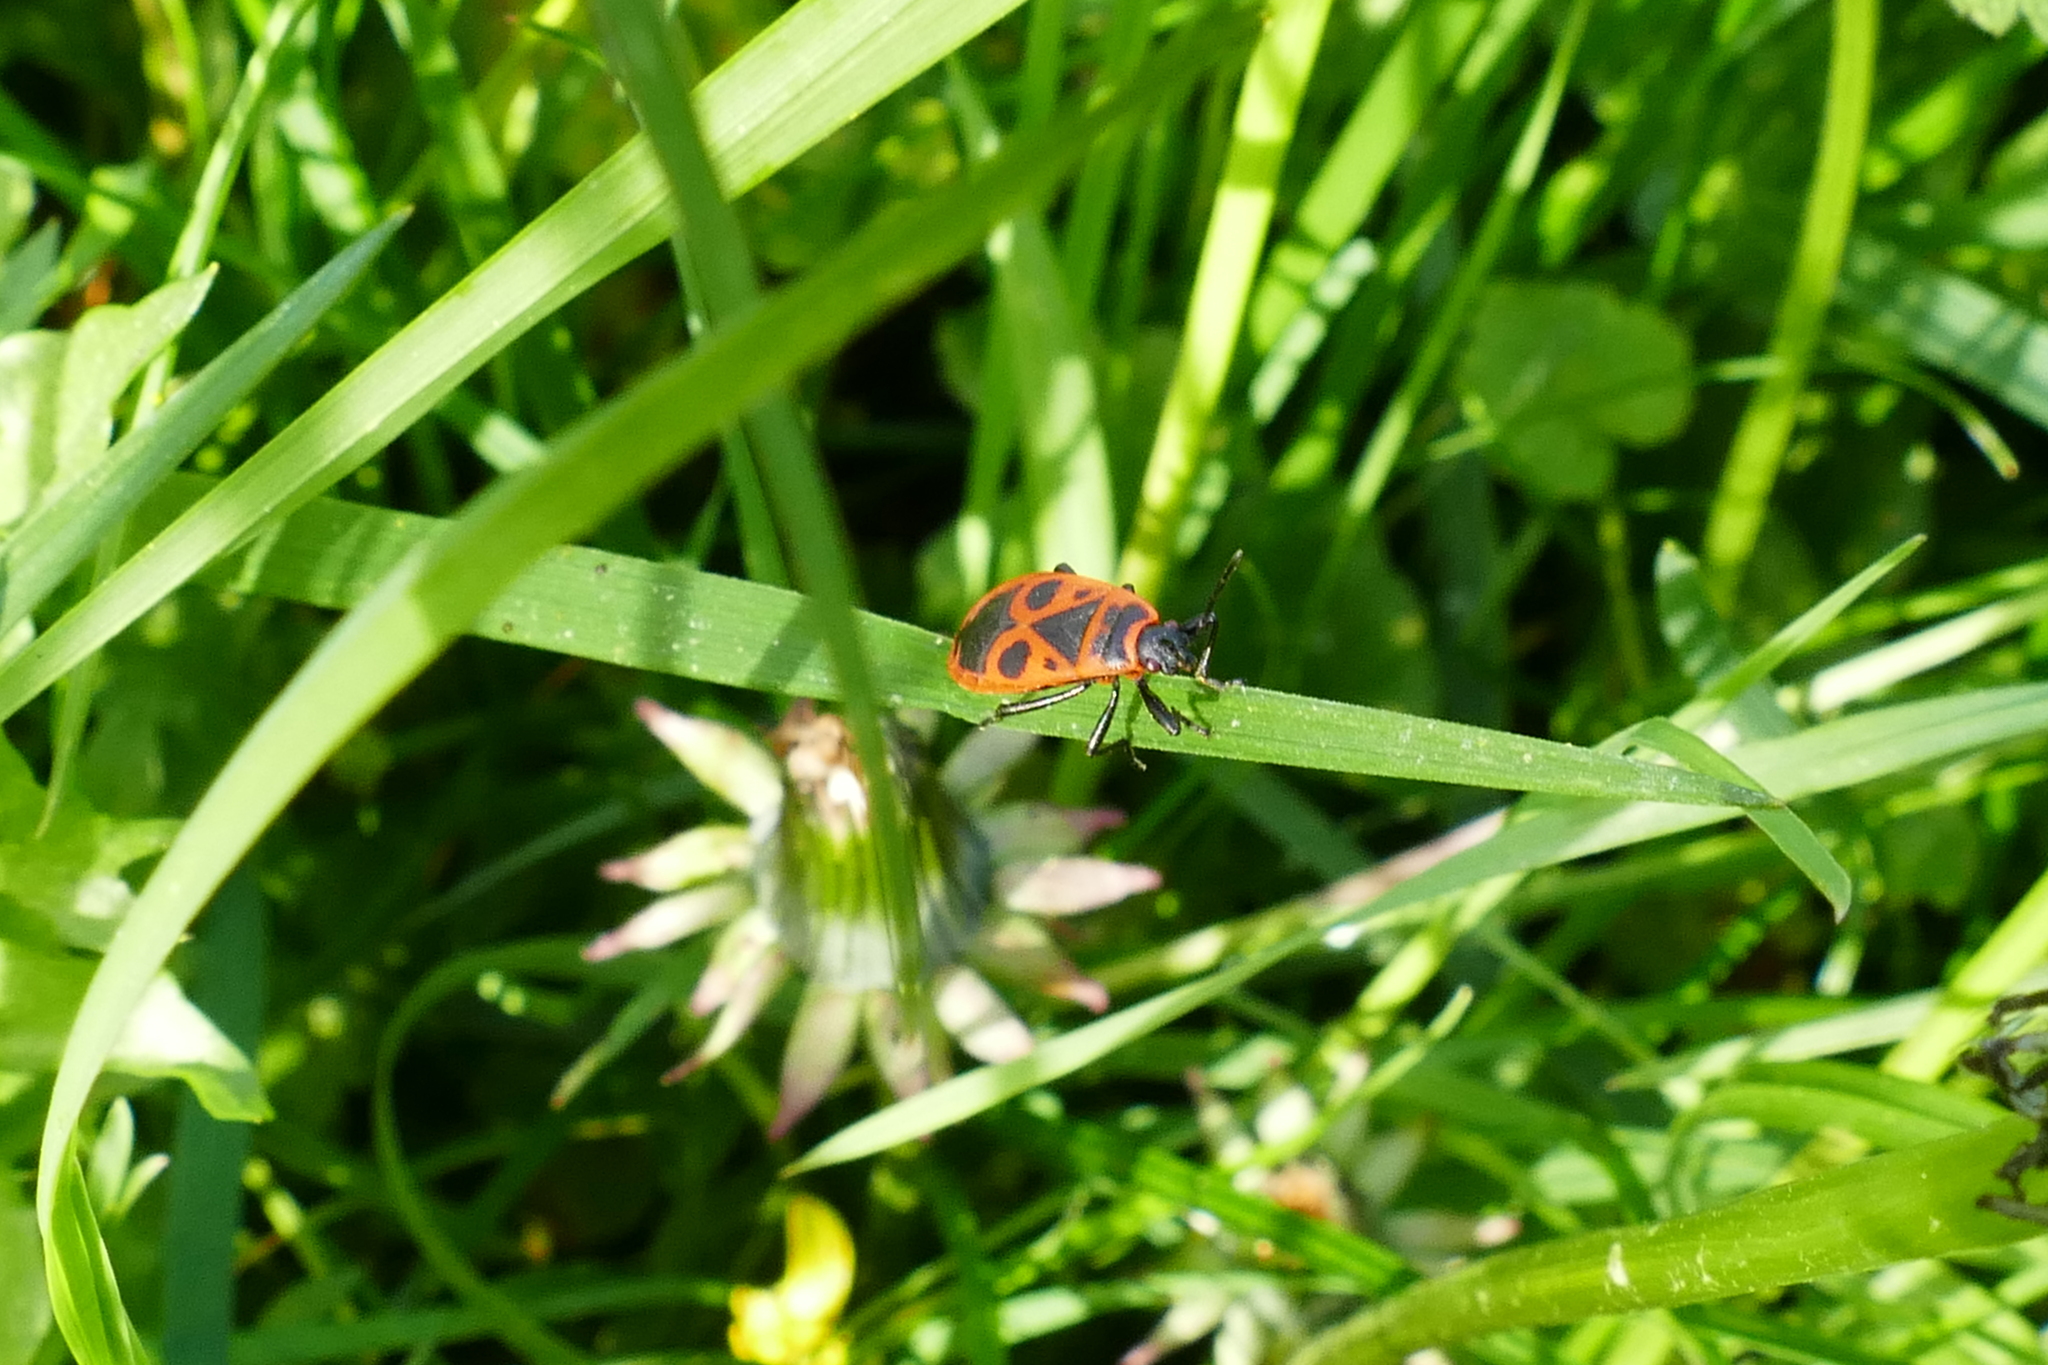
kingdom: Animalia
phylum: Arthropoda
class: Insecta
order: Hemiptera
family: Pyrrhocoridae
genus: Pyrrhocoris
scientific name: Pyrrhocoris apterus
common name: Firebug
